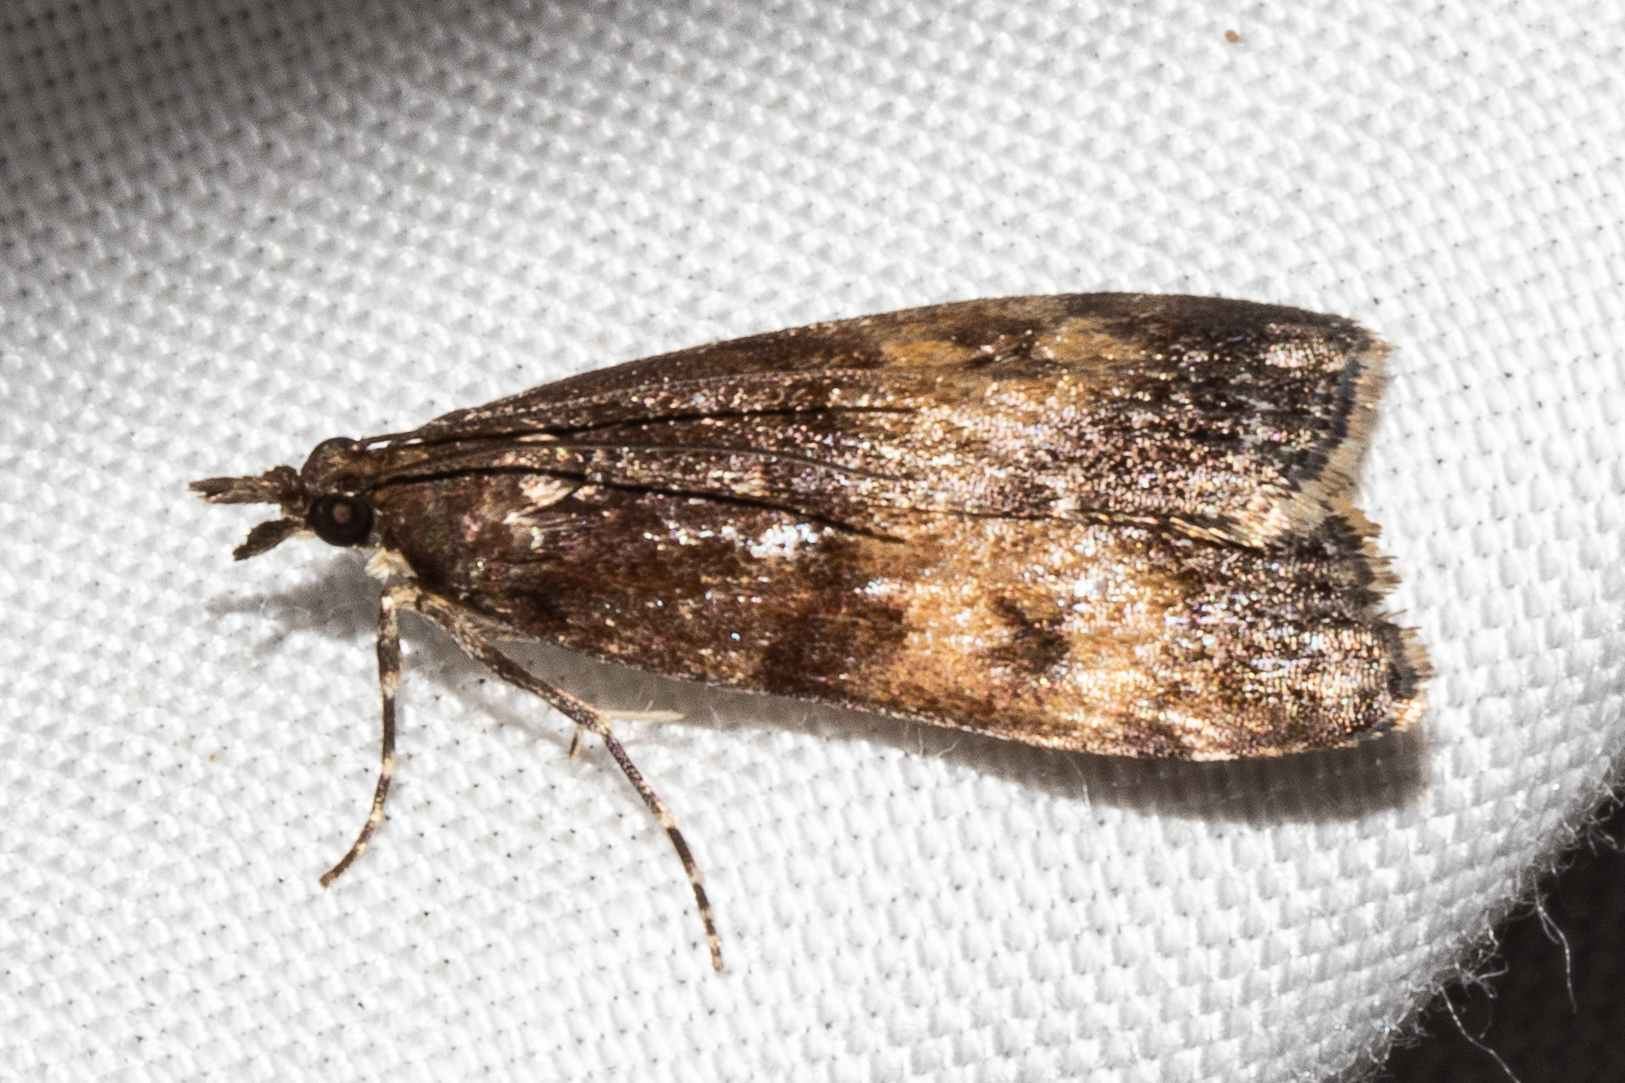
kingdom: Animalia
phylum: Arthropoda
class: Insecta
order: Lepidoptera
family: Crambidae
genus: Eudonia
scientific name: Eudonia asterisca
